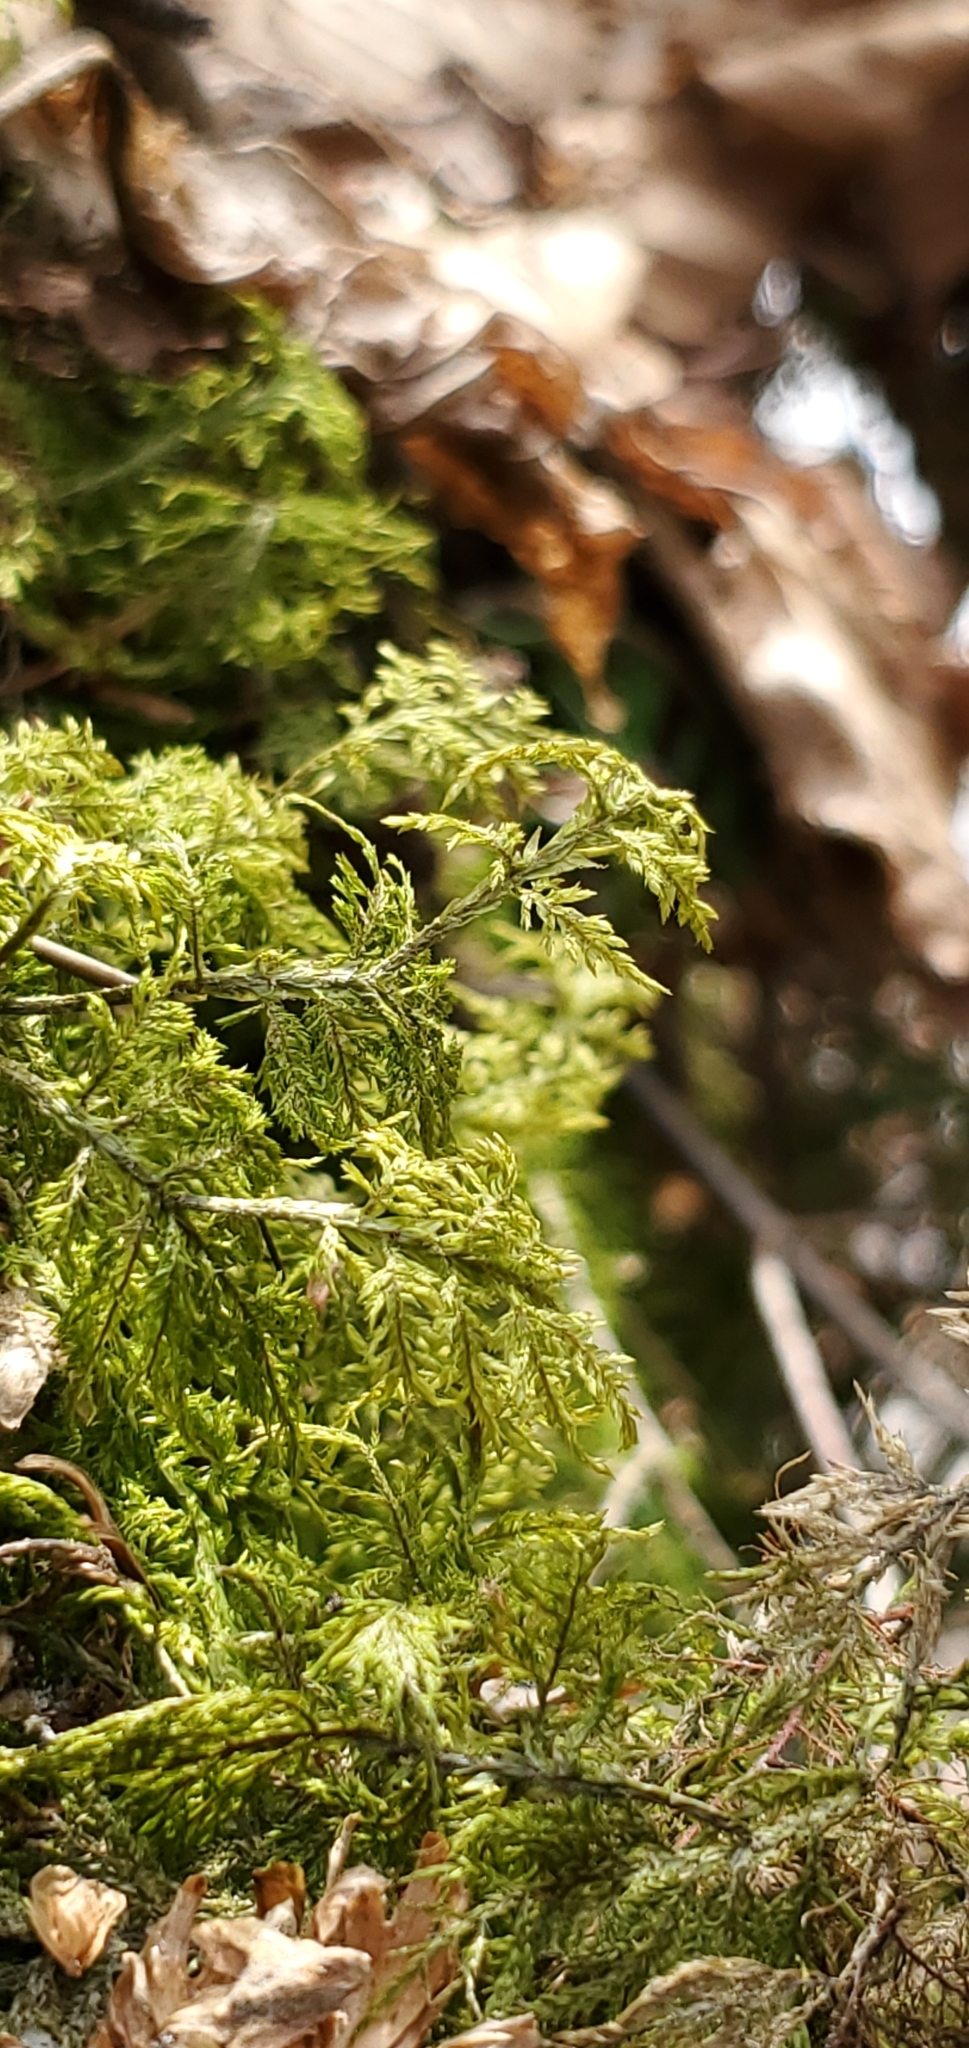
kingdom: Plantae
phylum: Bryophyta
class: Bryopsida
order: Hypnales
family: Hylocomiaceae
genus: Hylocomium
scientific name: Hylocomium splendens
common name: Stairstep moss
